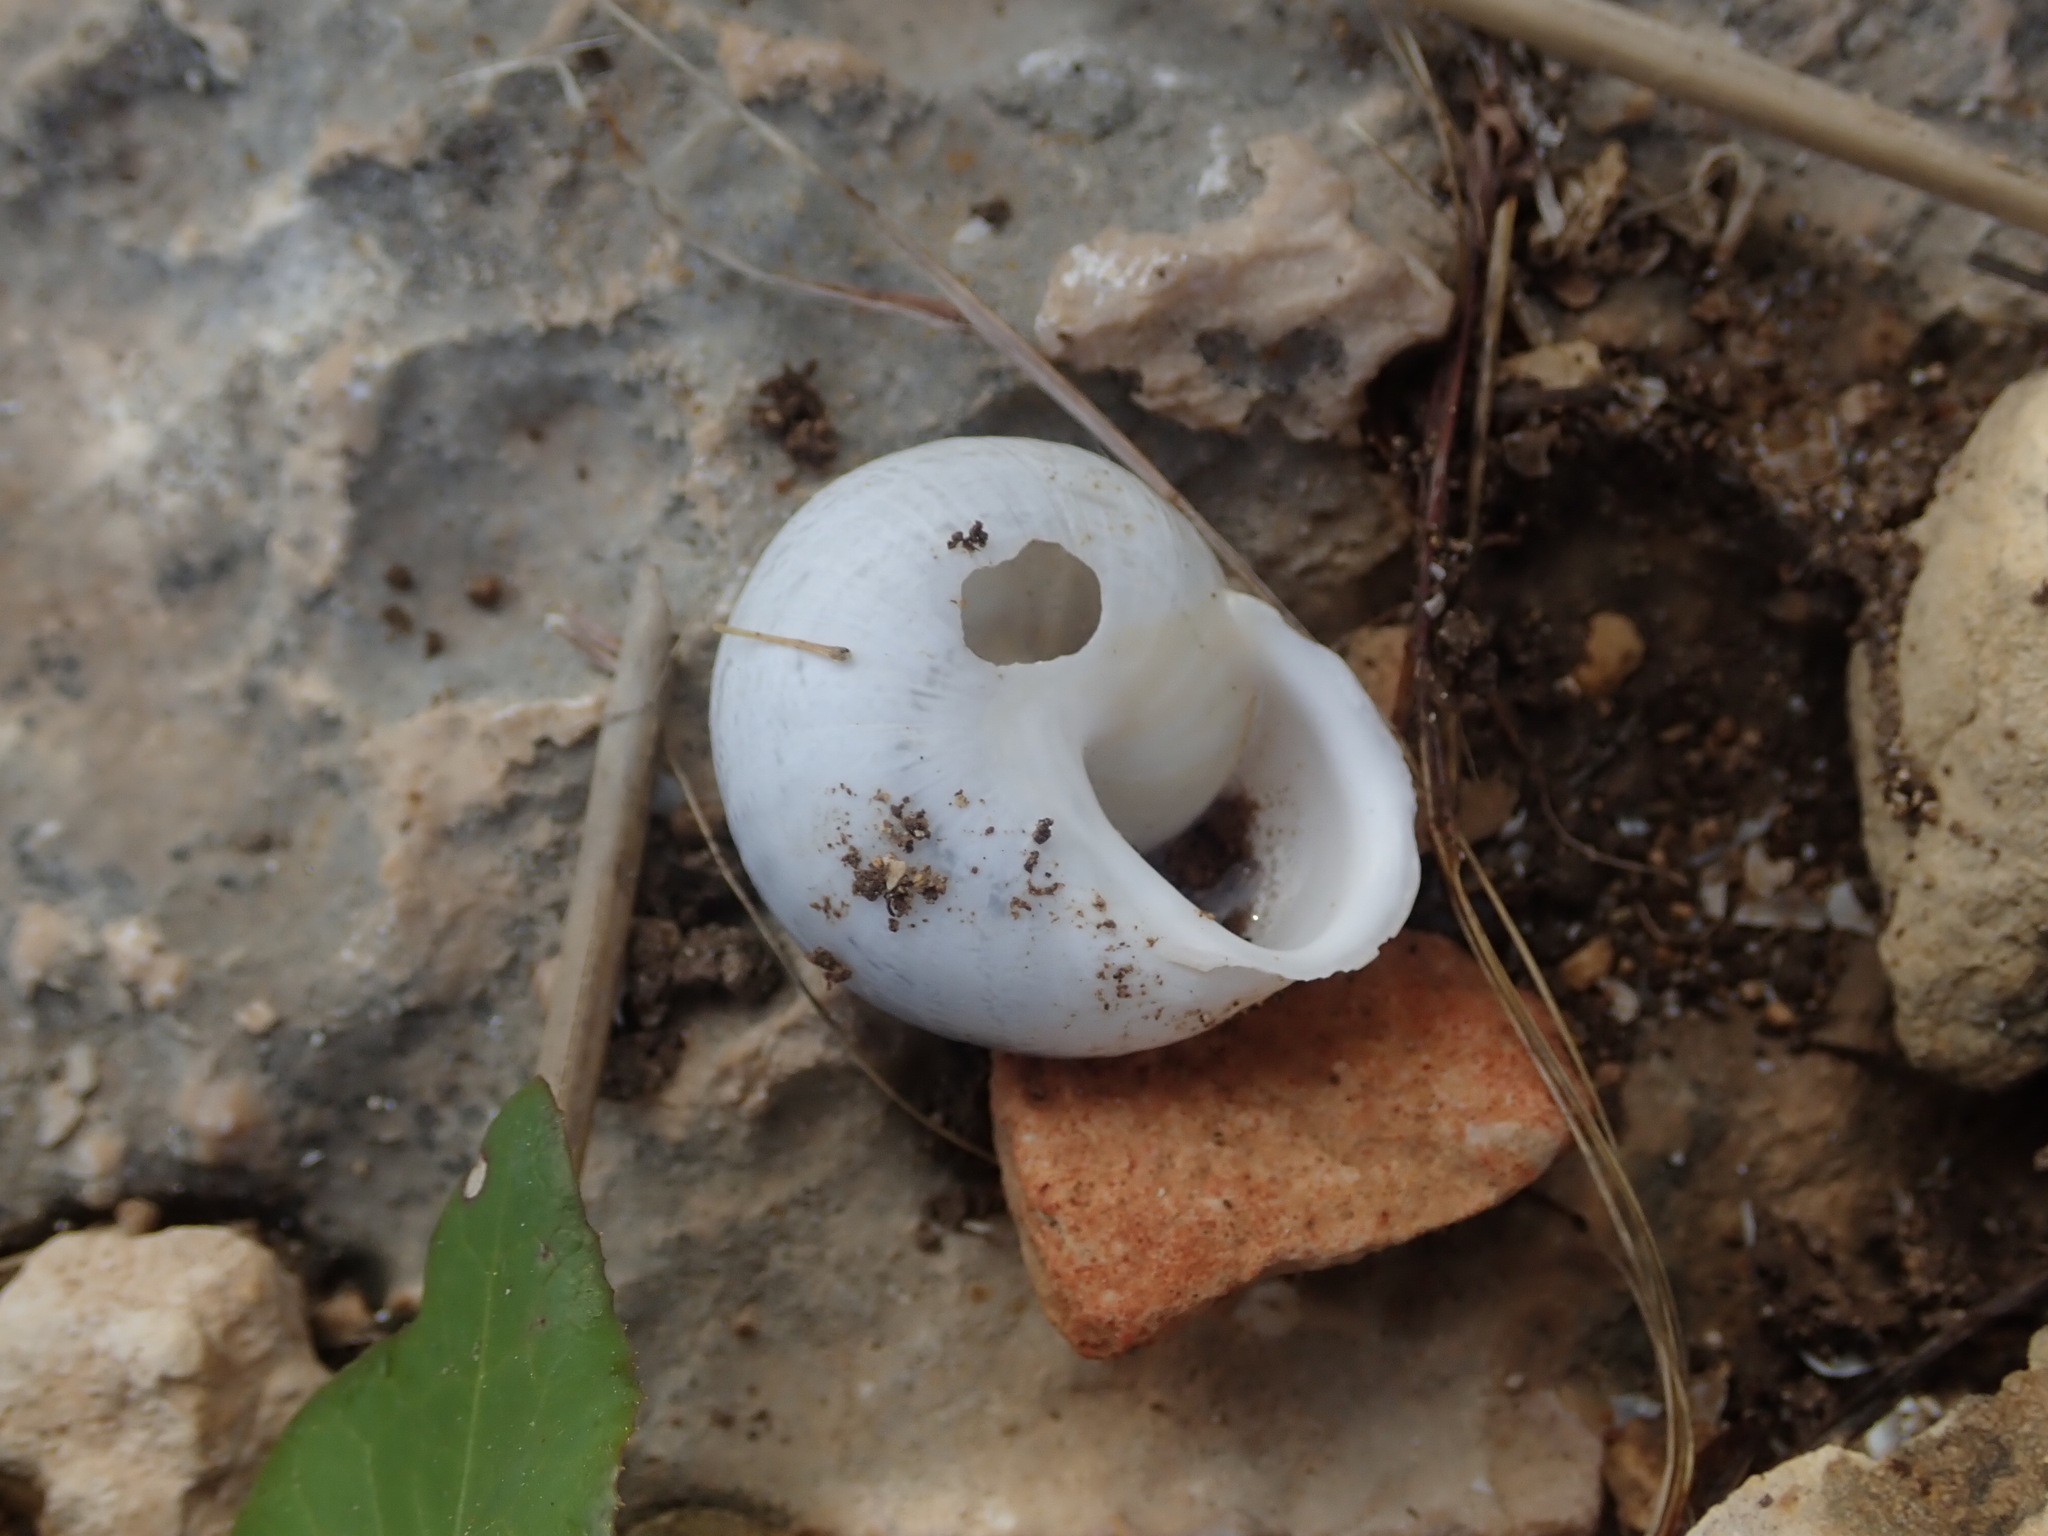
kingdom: Animalia
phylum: Mollusca
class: Gastropoda
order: Stylommatophora
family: Helicidae
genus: Eobania
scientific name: Eobania vermiculata
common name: Chocolateband snail
